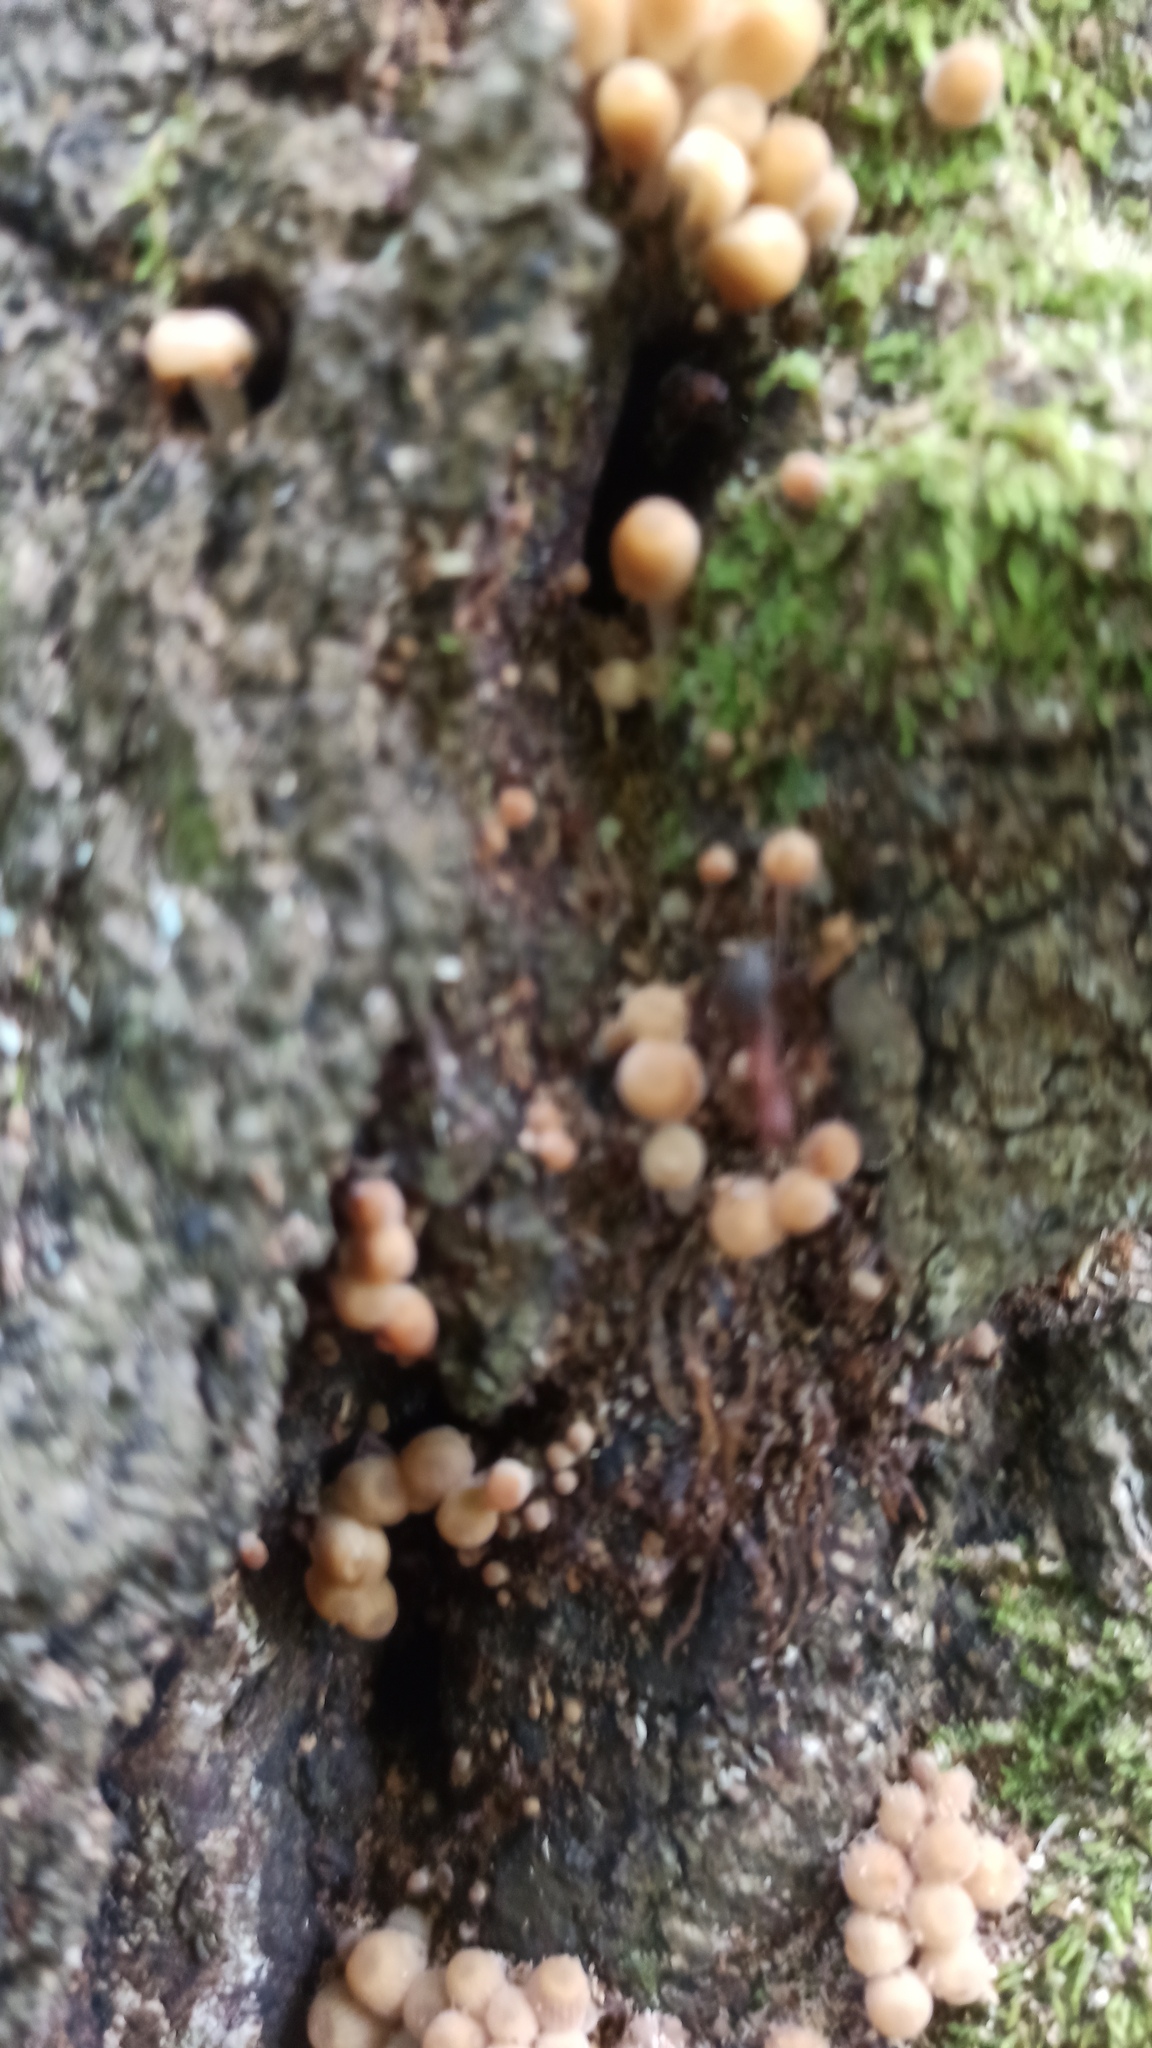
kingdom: Fungi
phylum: Basidiomycota
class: Agaricomycetes
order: Agaricales
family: Psathyrellaceae
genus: Coprinellus
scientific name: Coprinellus disseminatus
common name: Fairies' bonnets
